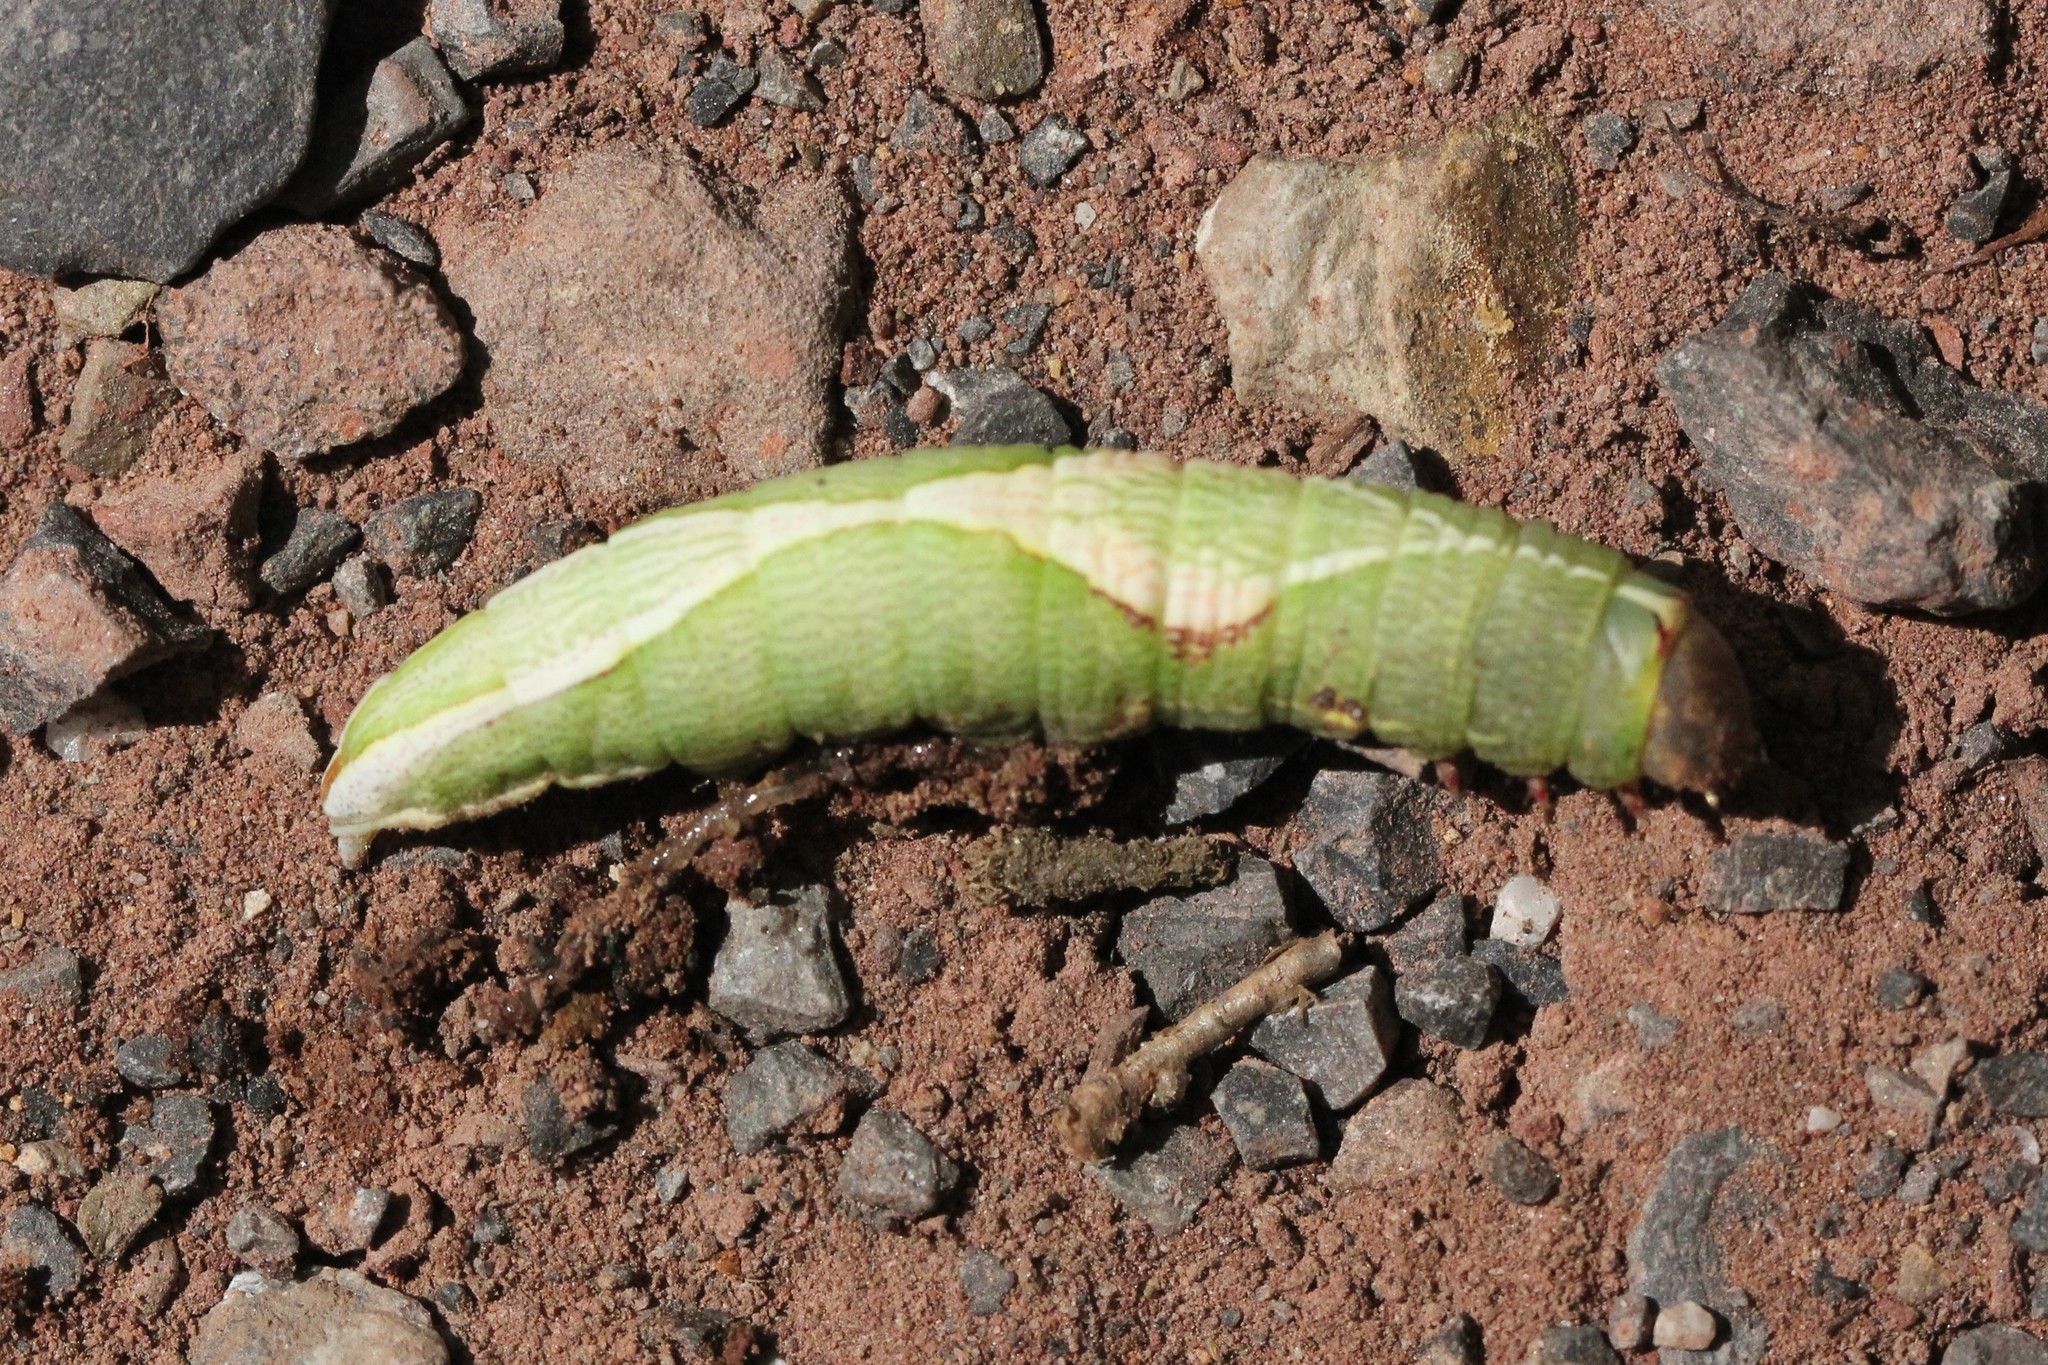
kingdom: Animalia
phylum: Arthropoda
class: Insecta
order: Lepidoptera
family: Notodontidae
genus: Heterocampa
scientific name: Heterocampa obliqua
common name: Oblique heterocampa
